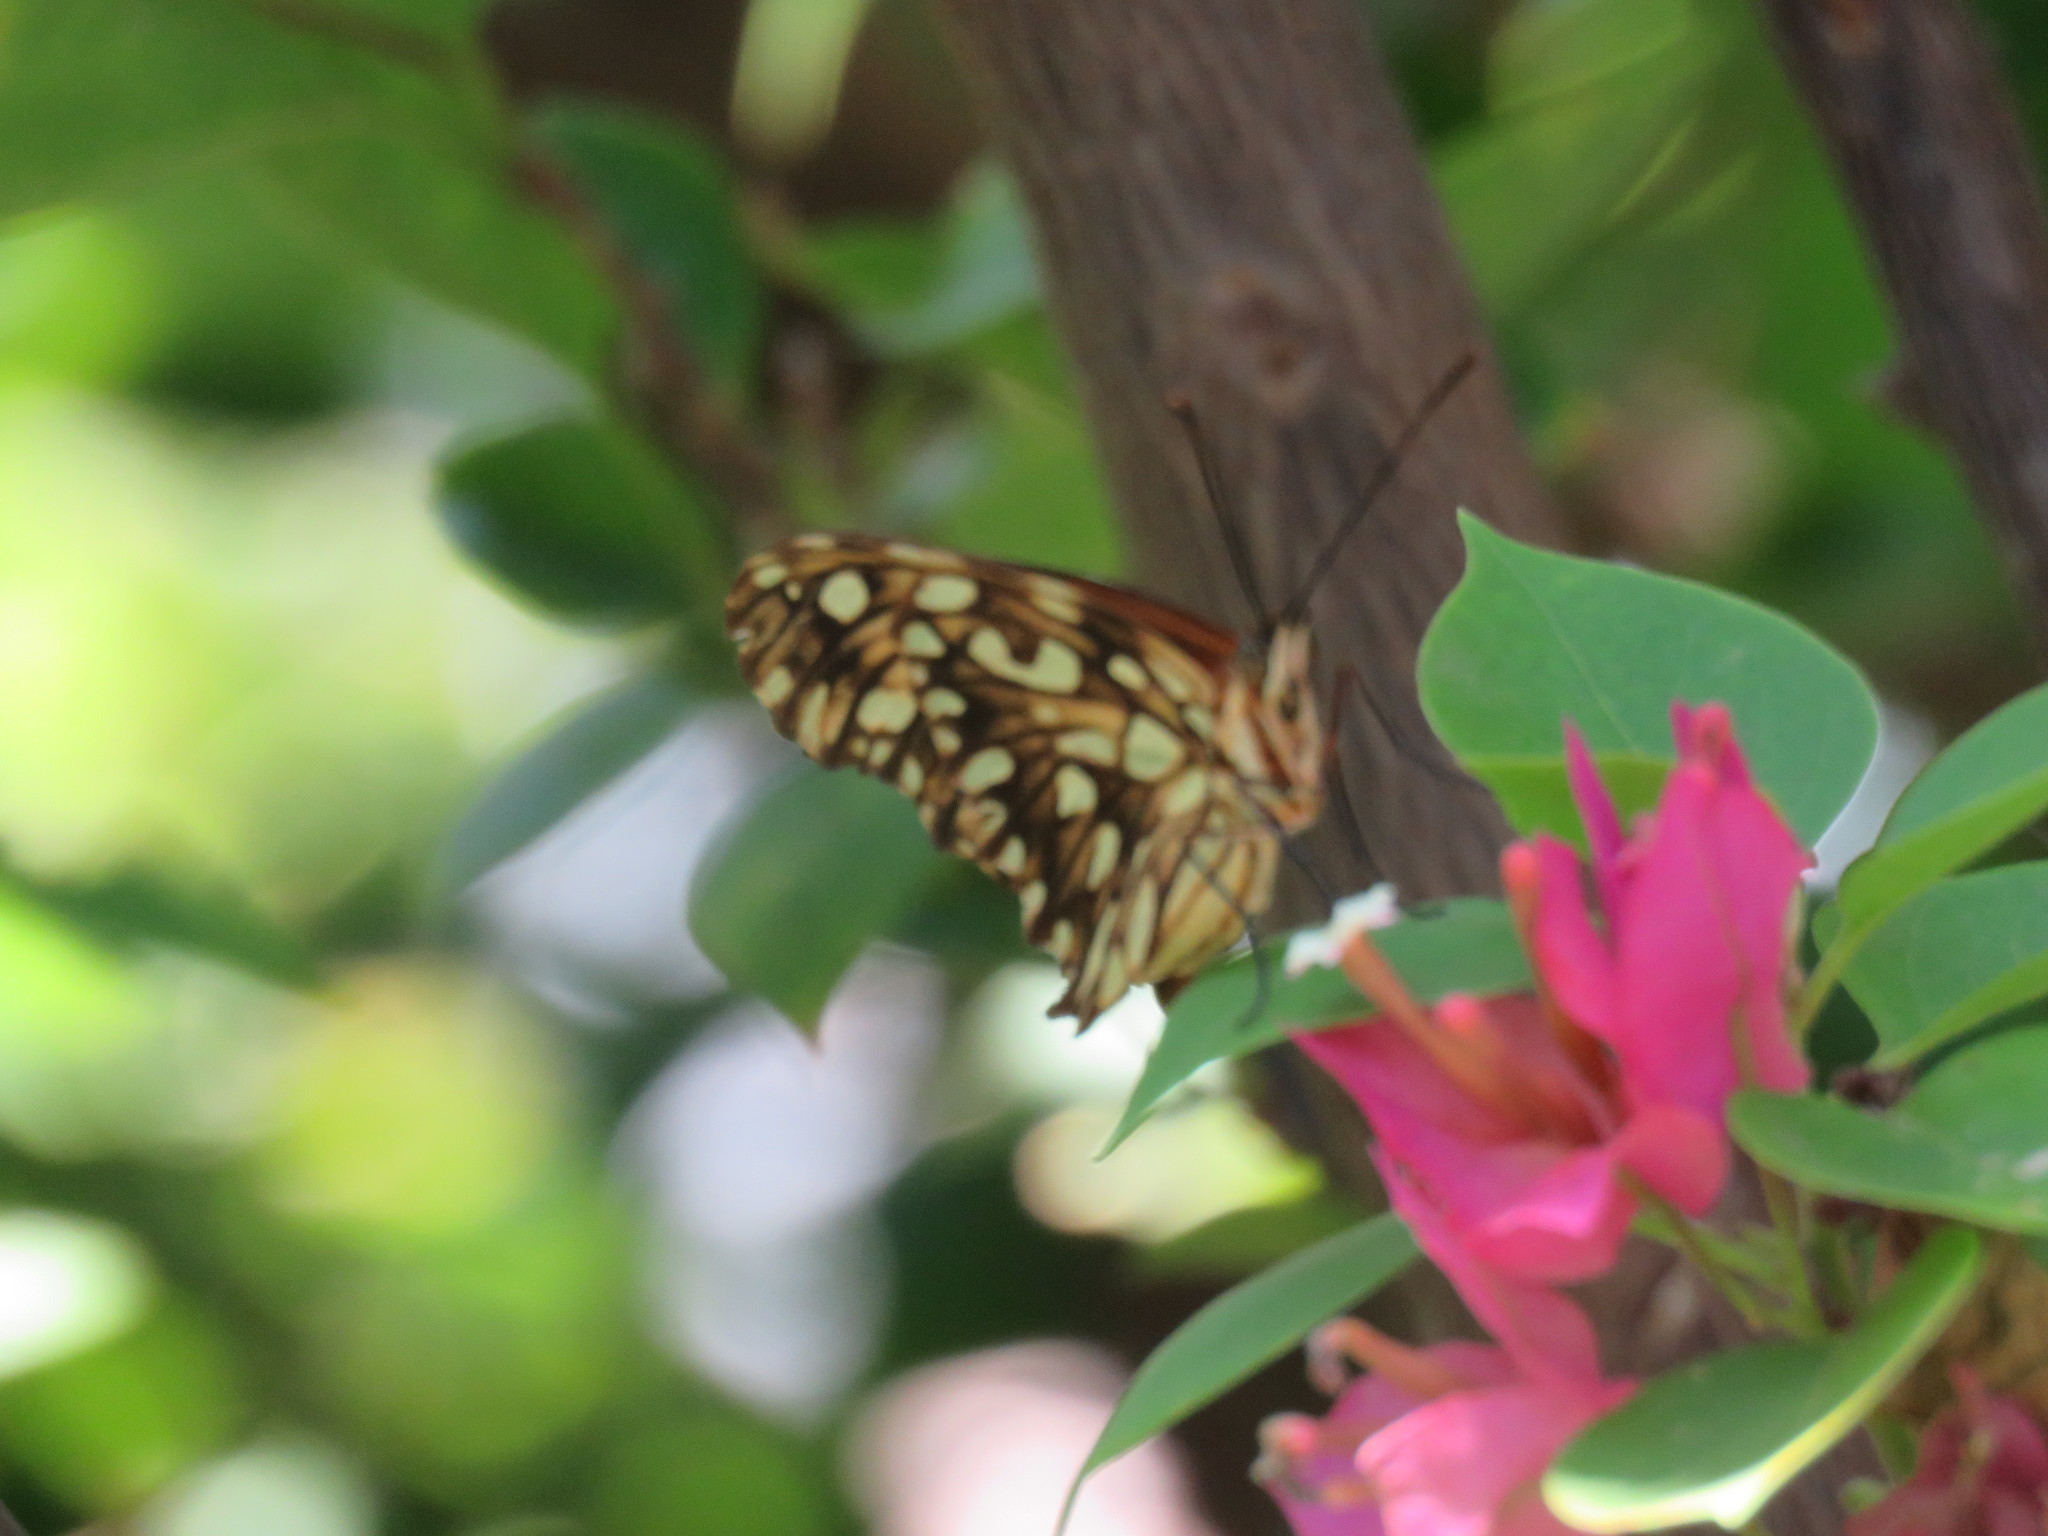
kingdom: Animalia
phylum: Arthropoda
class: Insecta
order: Lepidoptera
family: Nymphalidae
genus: Dione
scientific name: Dione juno
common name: Juno silverspot
